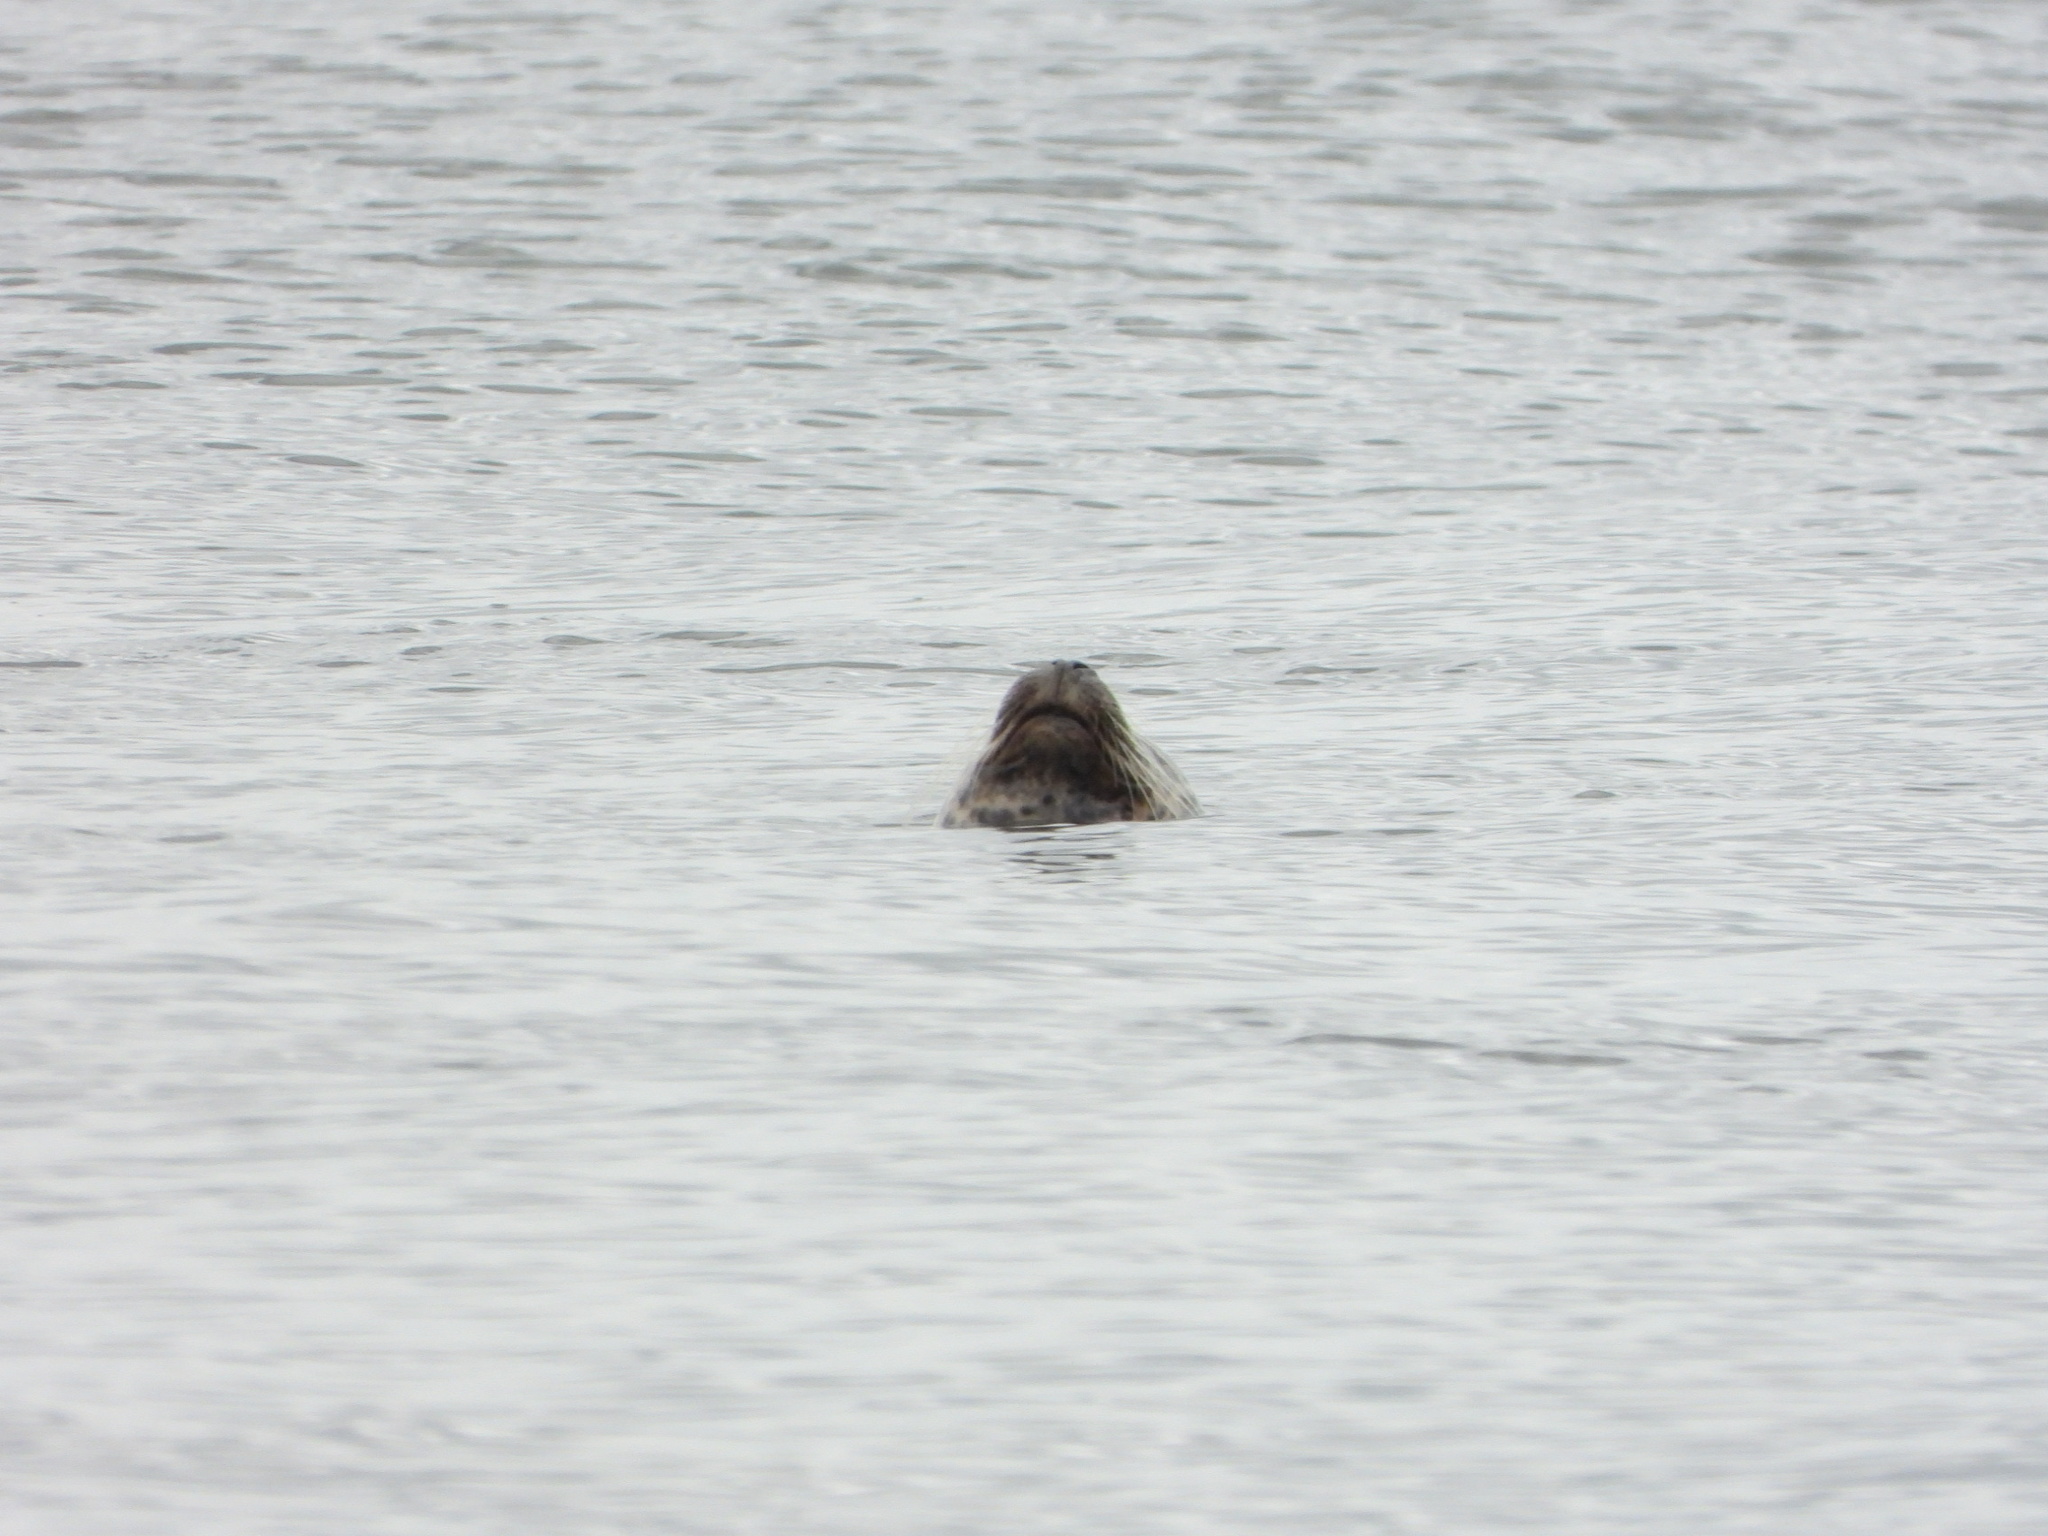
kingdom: Animalia
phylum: Chordata
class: Mammalia
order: Carnivora
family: Phocidae
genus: Phoca
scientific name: Phoca vitulina
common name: Harbor seal
